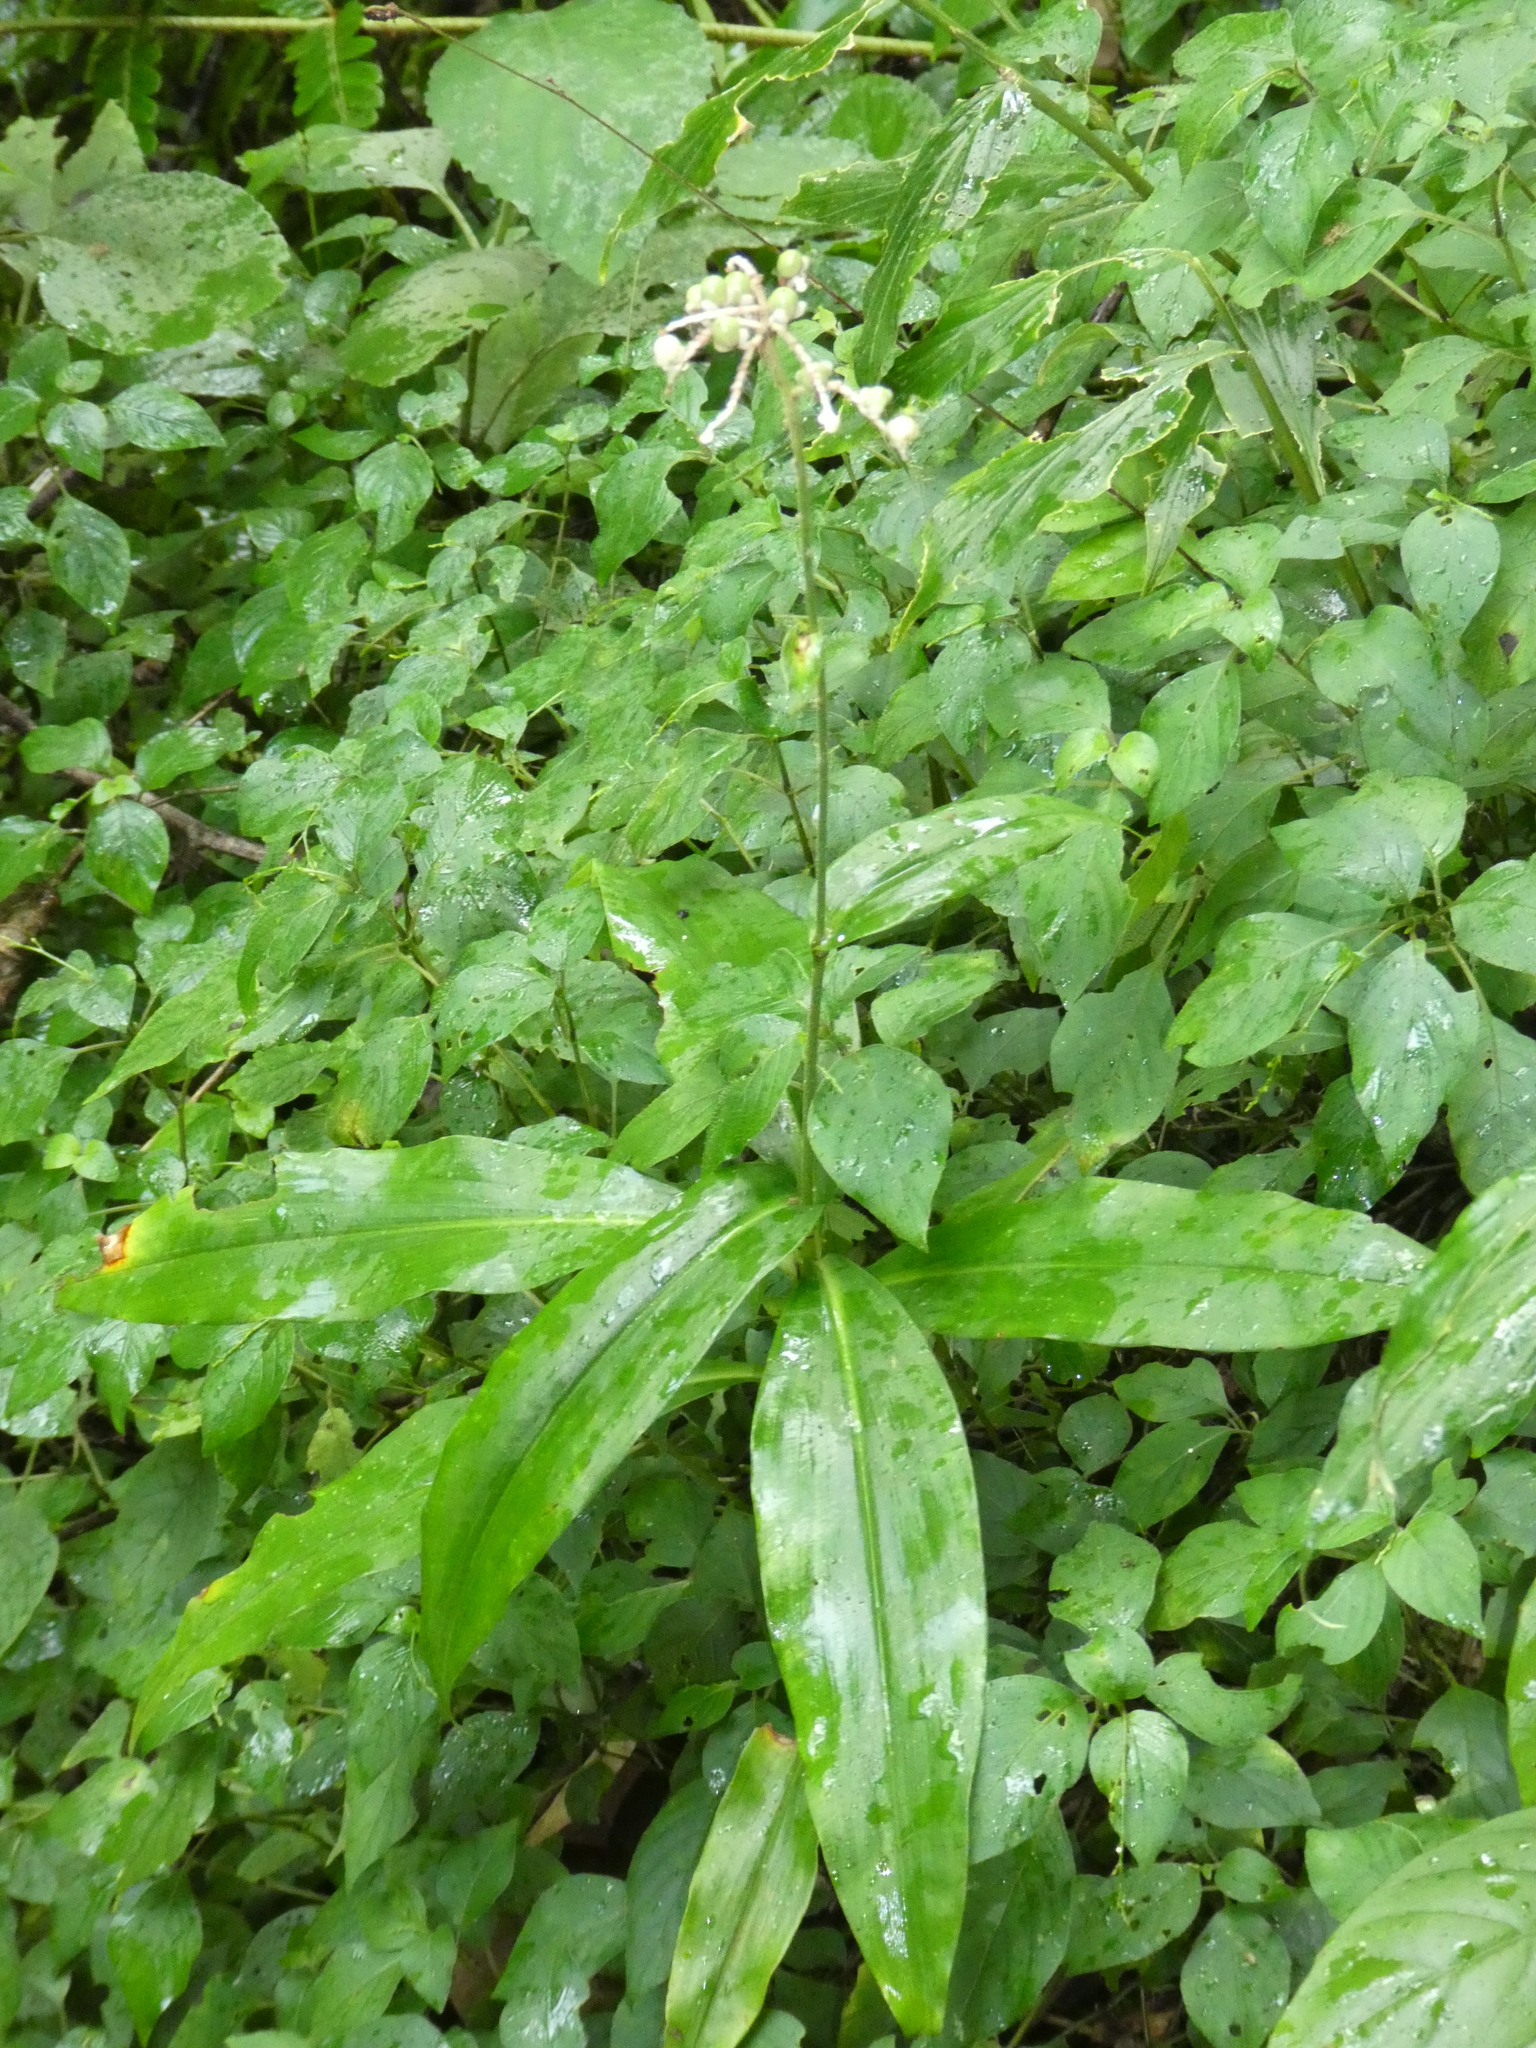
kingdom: Plantae
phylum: Tracheophyta
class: Liliopsida
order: Commelinales
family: Commelinaceae
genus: Pollia
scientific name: Pollia japonica
